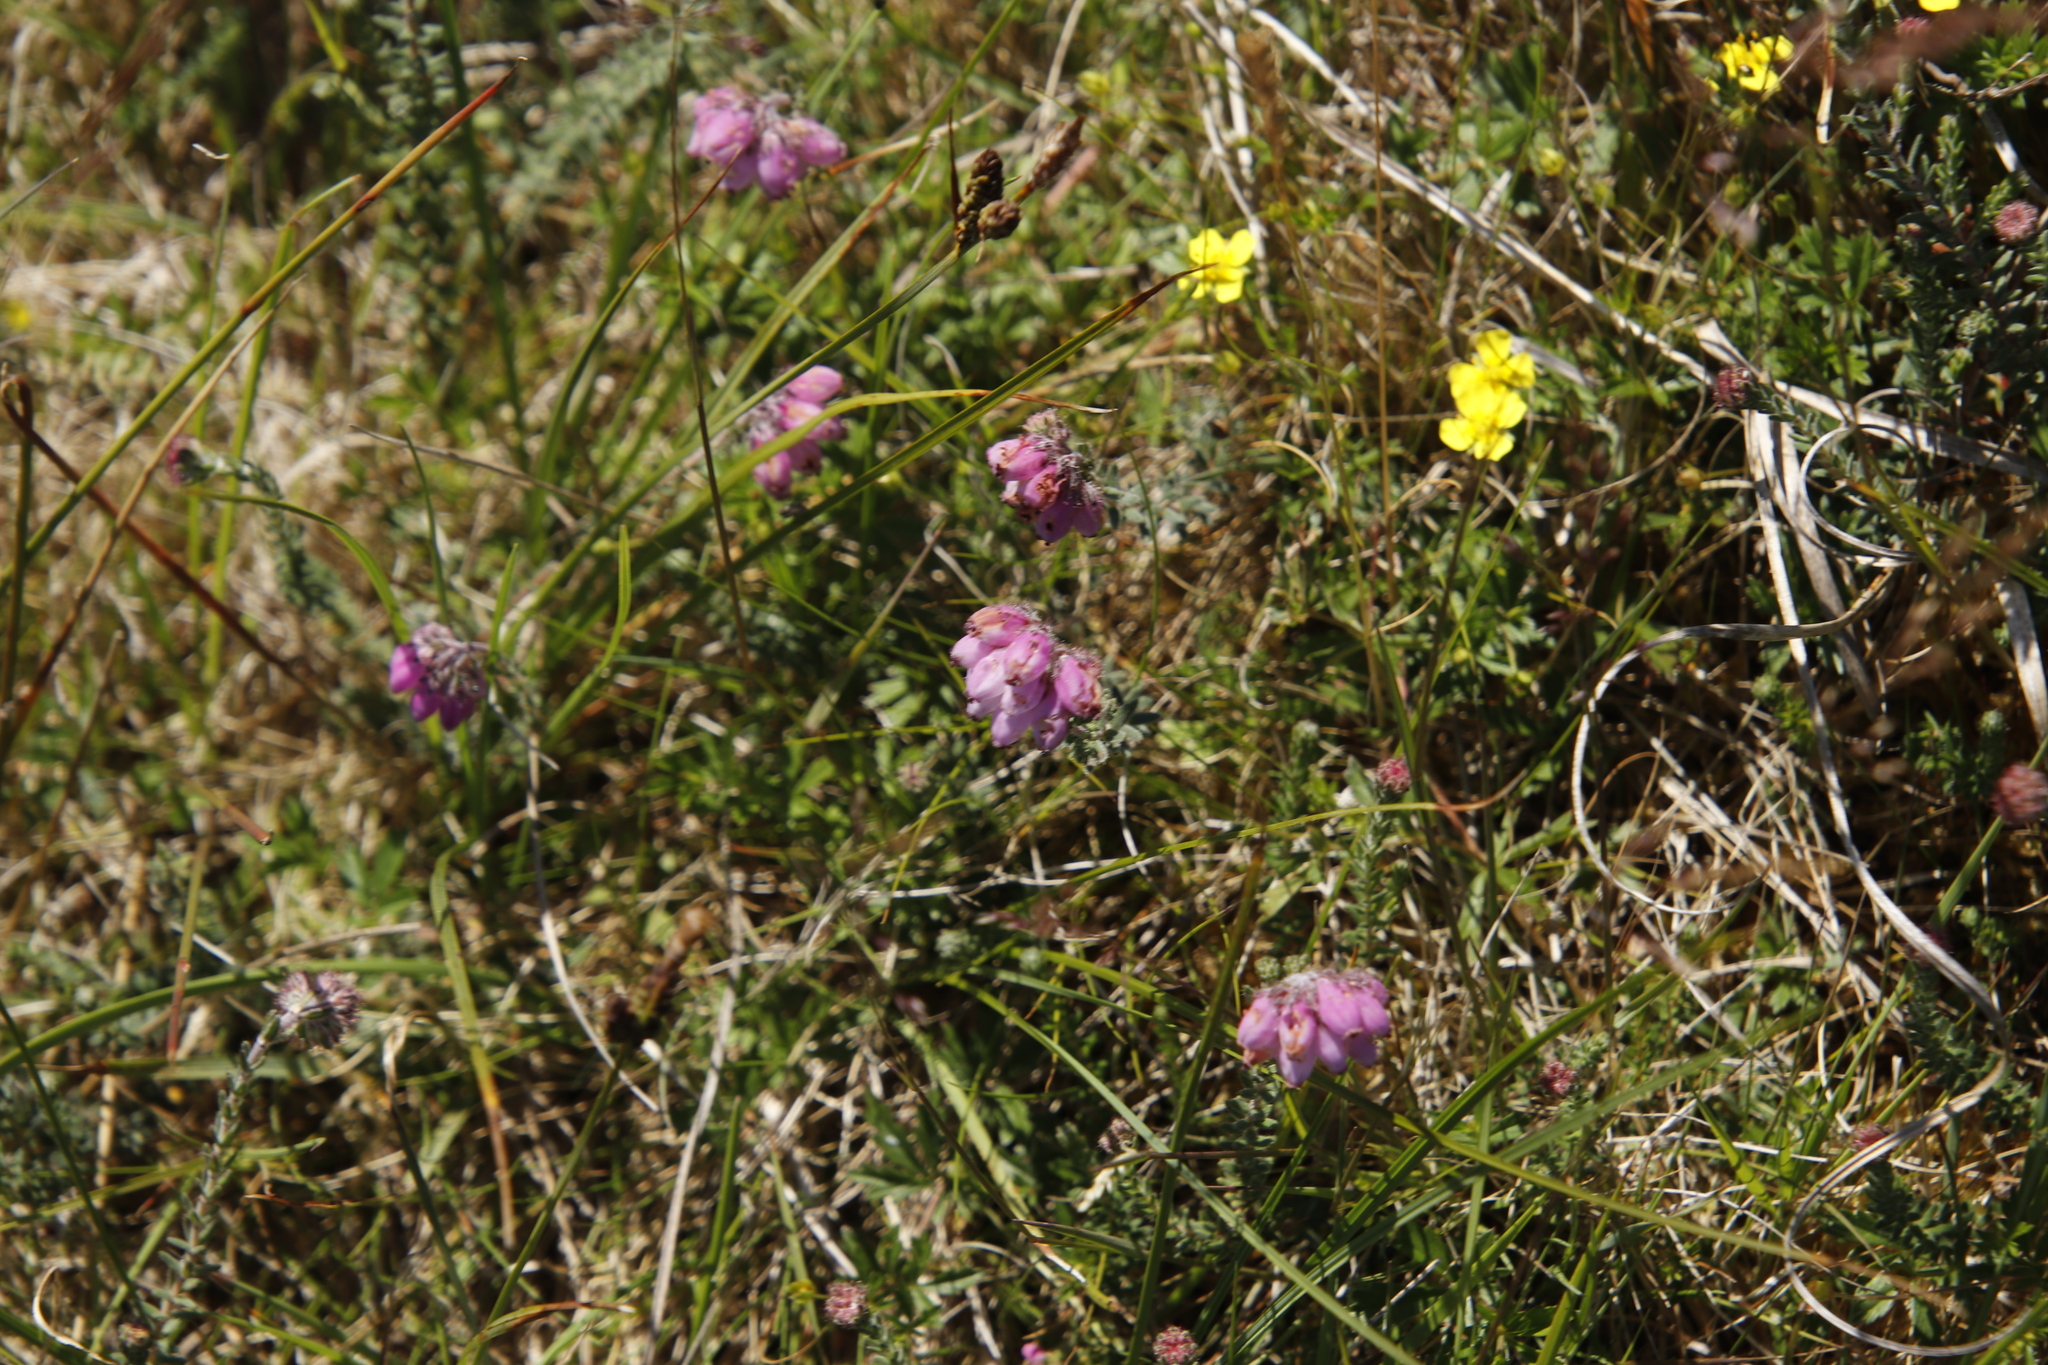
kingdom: Plantae
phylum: Tracheophyta
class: Magnoliopsida
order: Ericales
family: Ericaceae
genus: Erica
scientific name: Erica tetralix
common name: Cross-leaved heath
